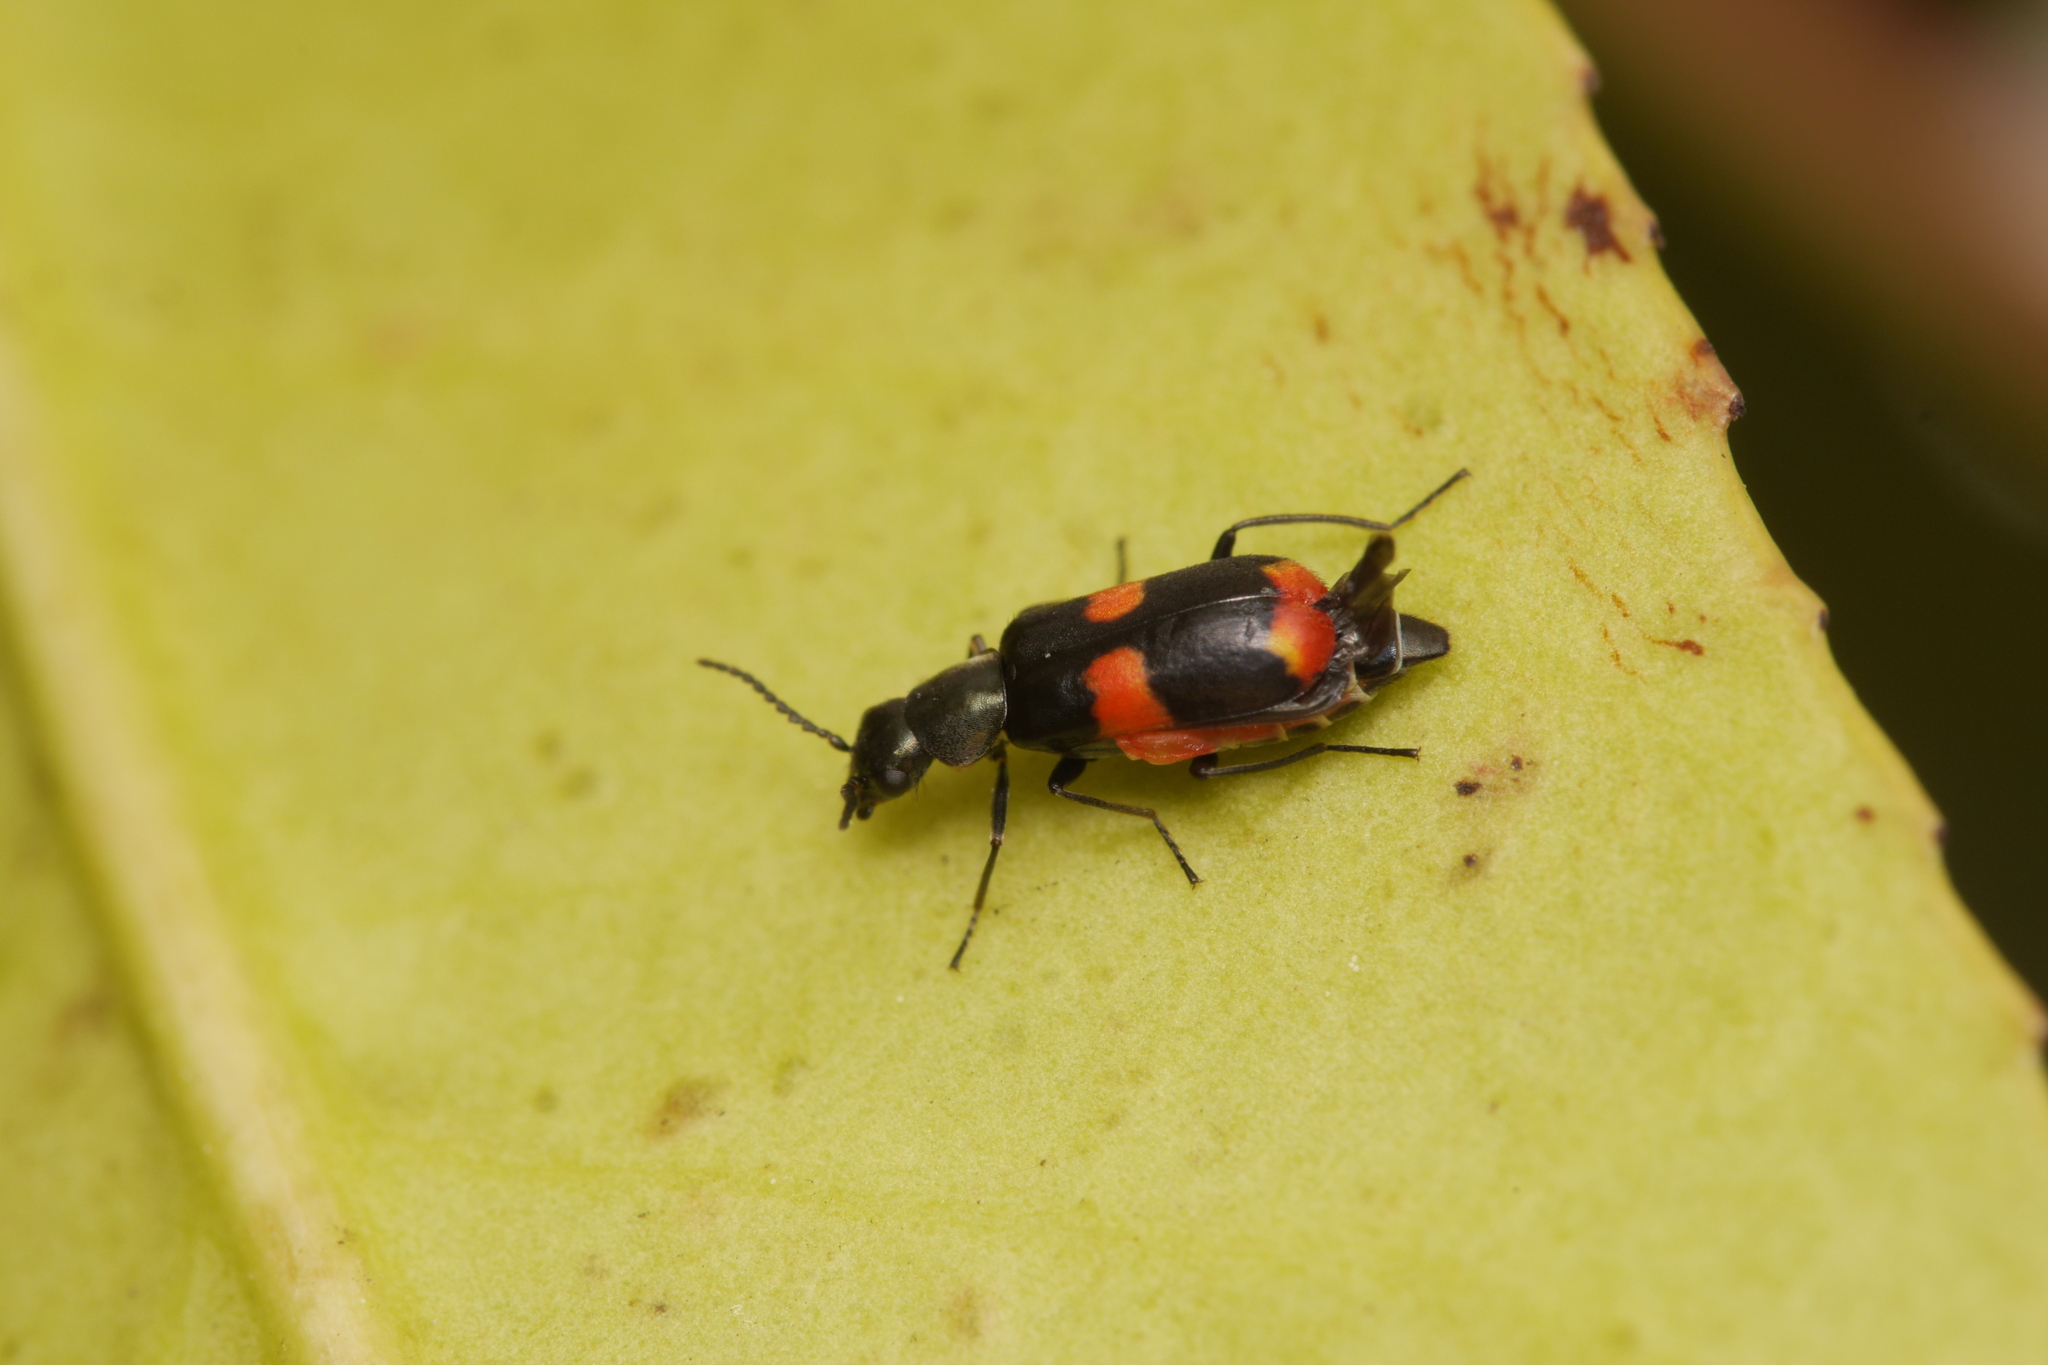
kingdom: Animalia
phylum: Arthropoda
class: Insecta
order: Coleoptera
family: Melyridae
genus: Anthocomus
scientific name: Anthocomus fasciatus
